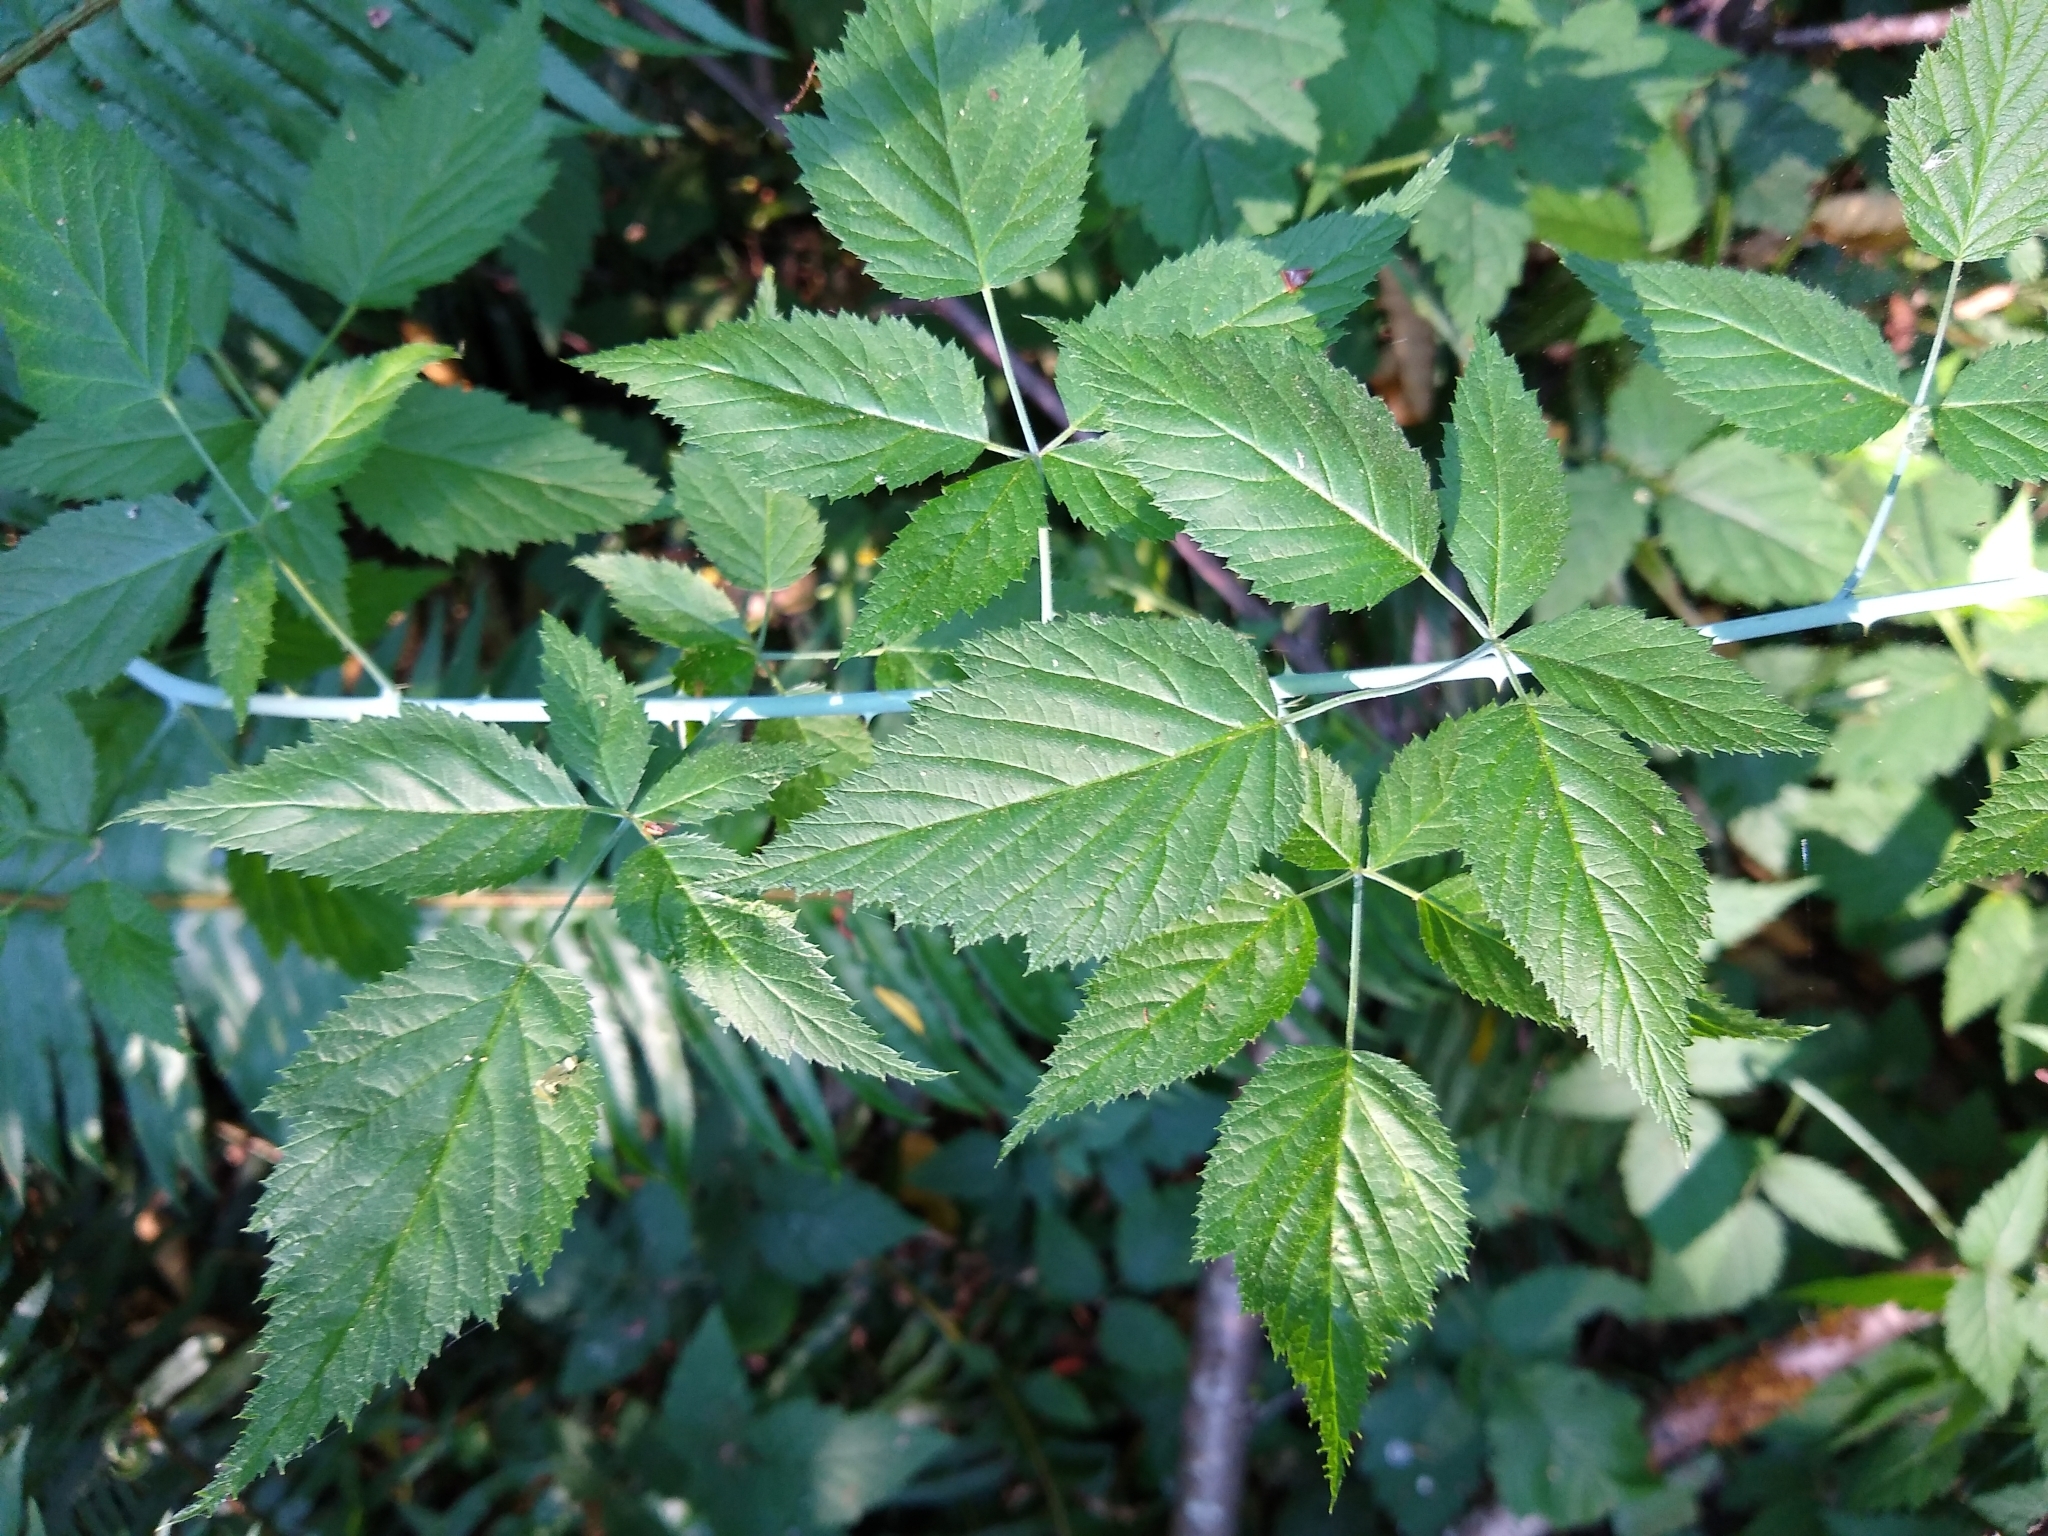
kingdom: Plantae
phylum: Tracheophyta
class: Magnoliopsida
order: Rosales
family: Rosaceae
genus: Rubus
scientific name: Rubus leucodermis
